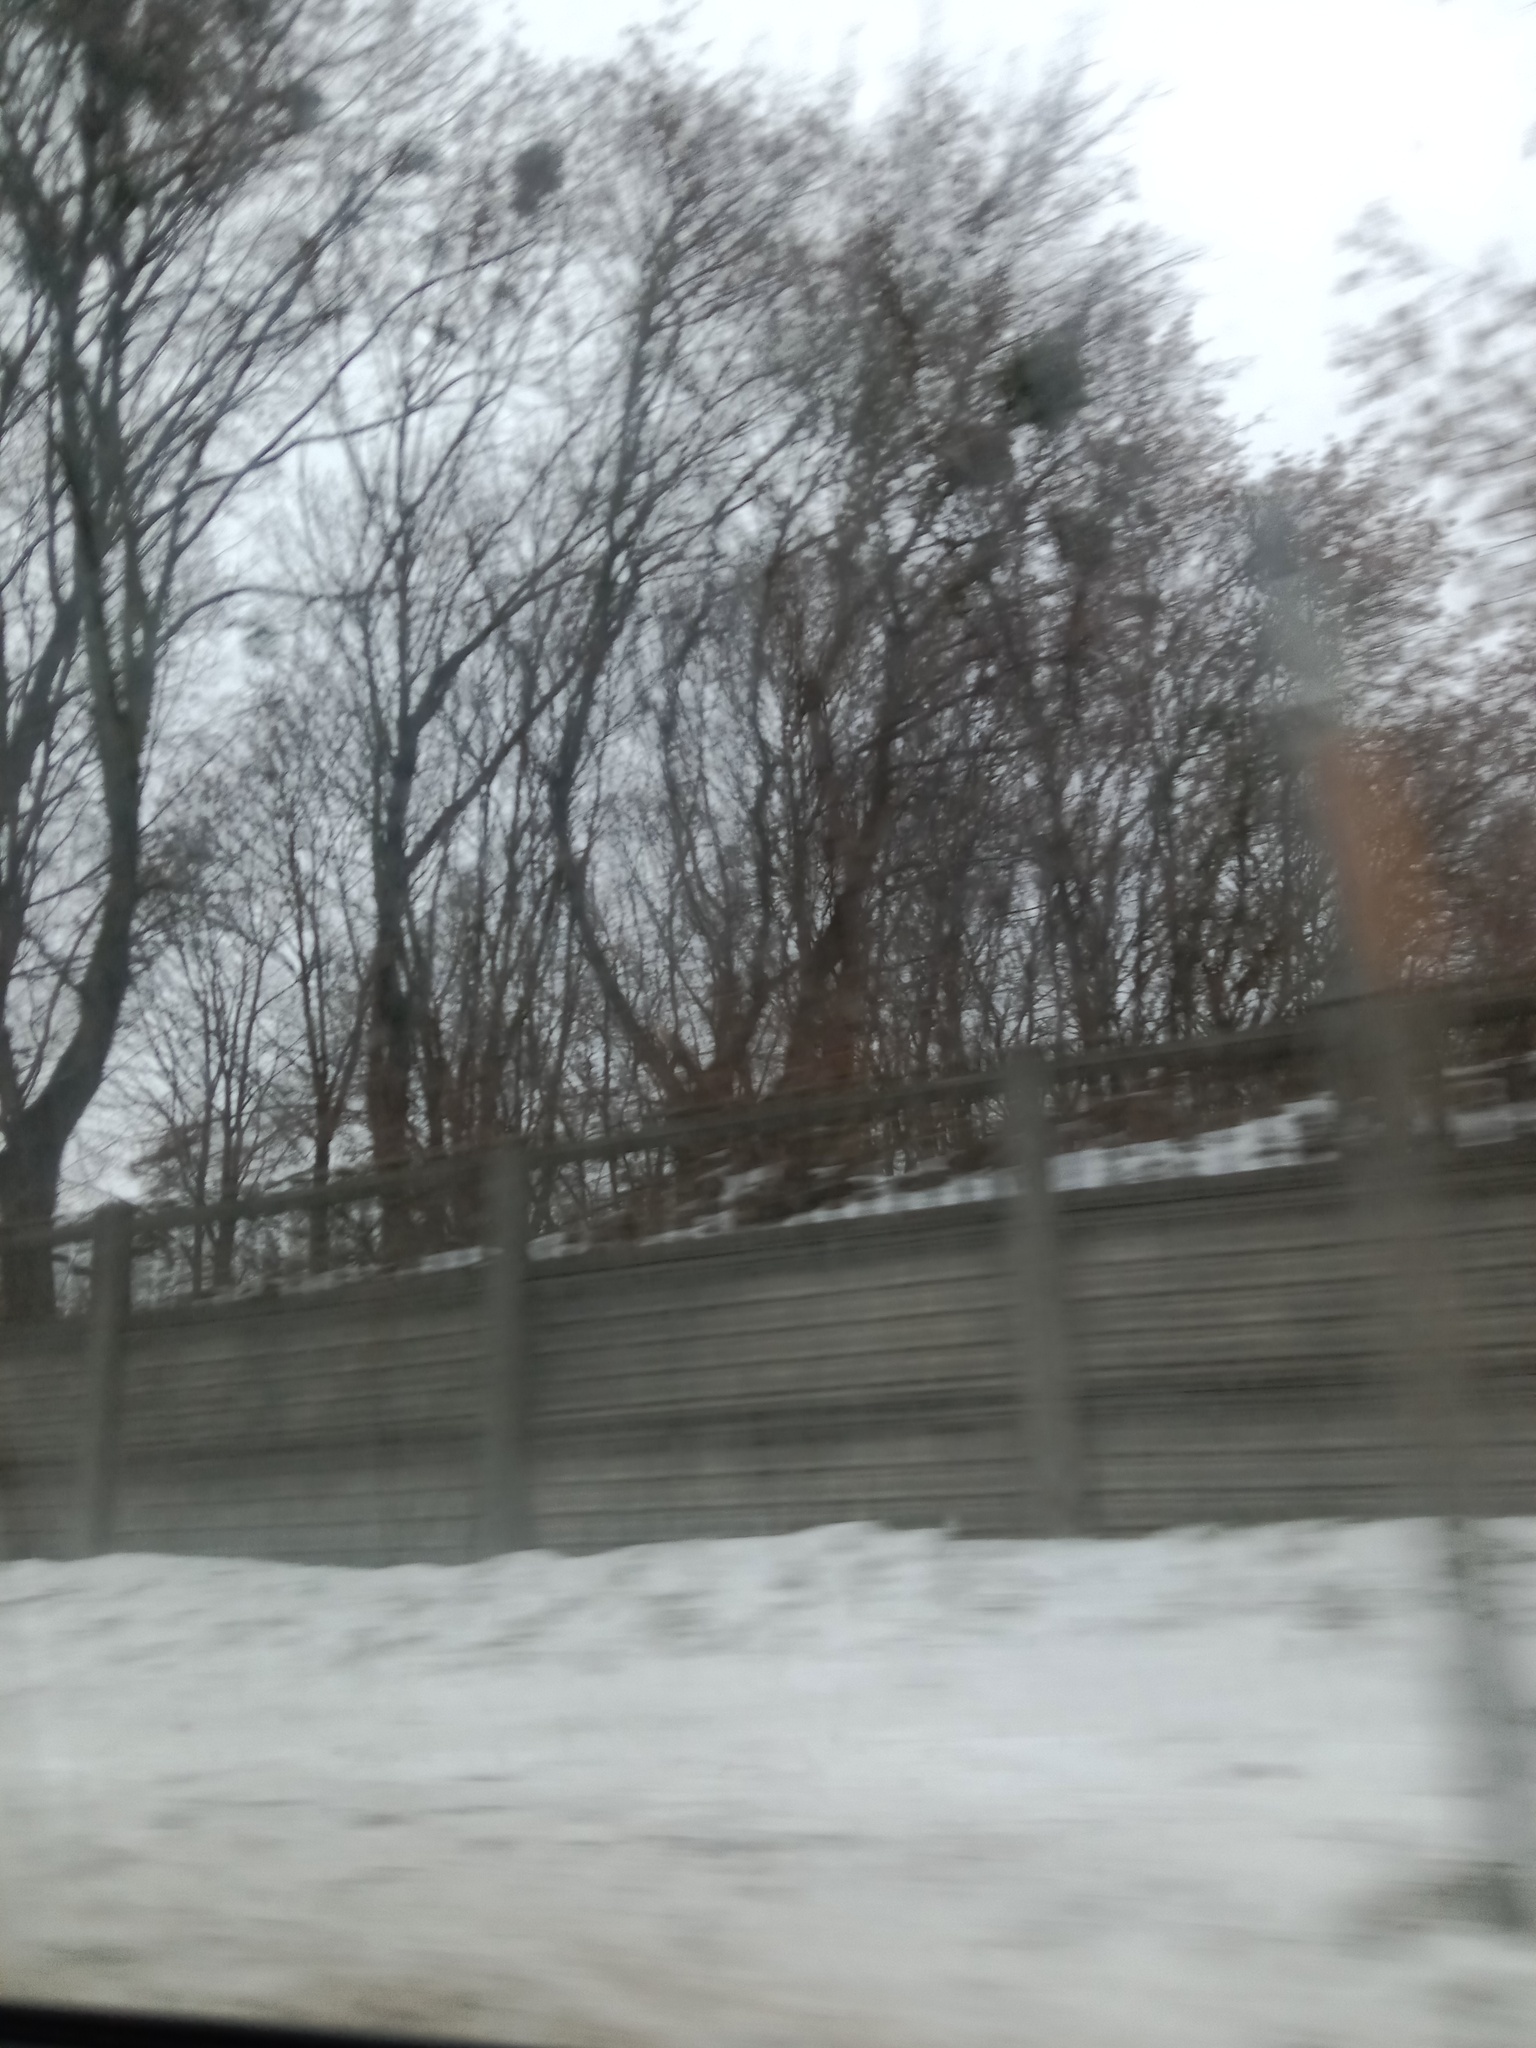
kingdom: Plantae
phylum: Tracheophyta
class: Magnoliopsida
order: Santalales
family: Viscaceae
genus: Viscum
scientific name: Viscum album
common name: Mistletoe
